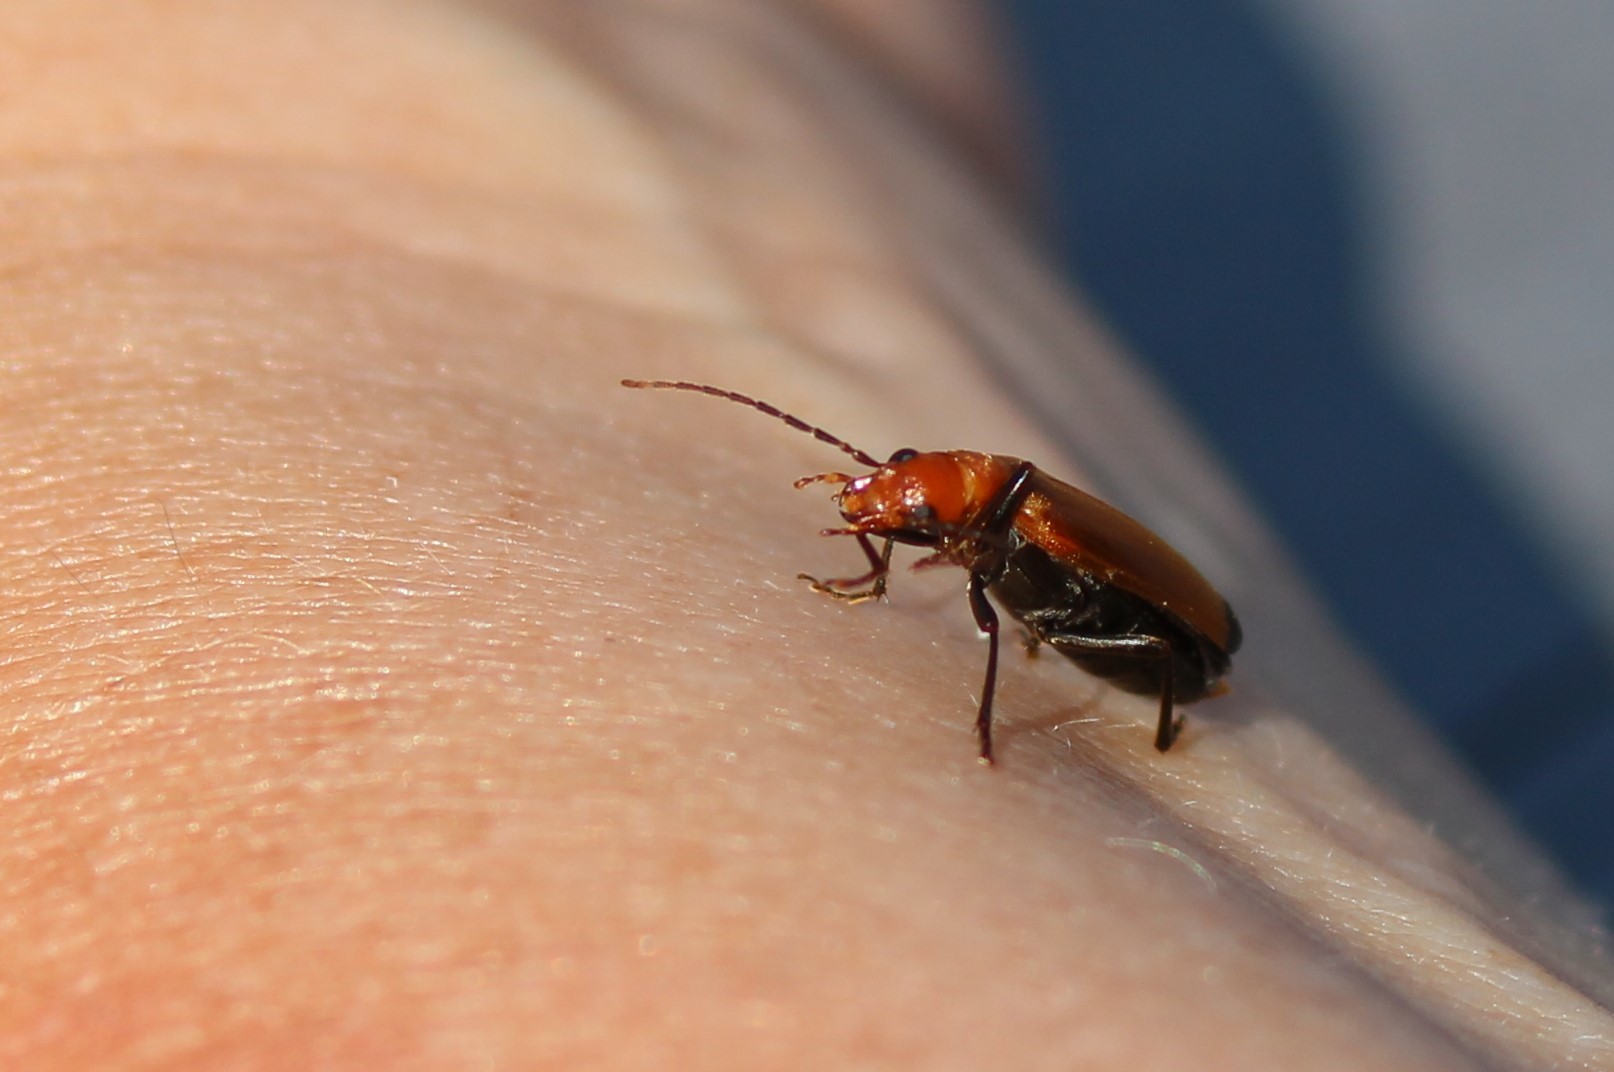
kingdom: Animalia
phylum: Arthropoda
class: Insecta
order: Coleoptera
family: Oedemeridae
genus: Nacerdes
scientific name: Nacerdes melanura
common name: Wharf borer
